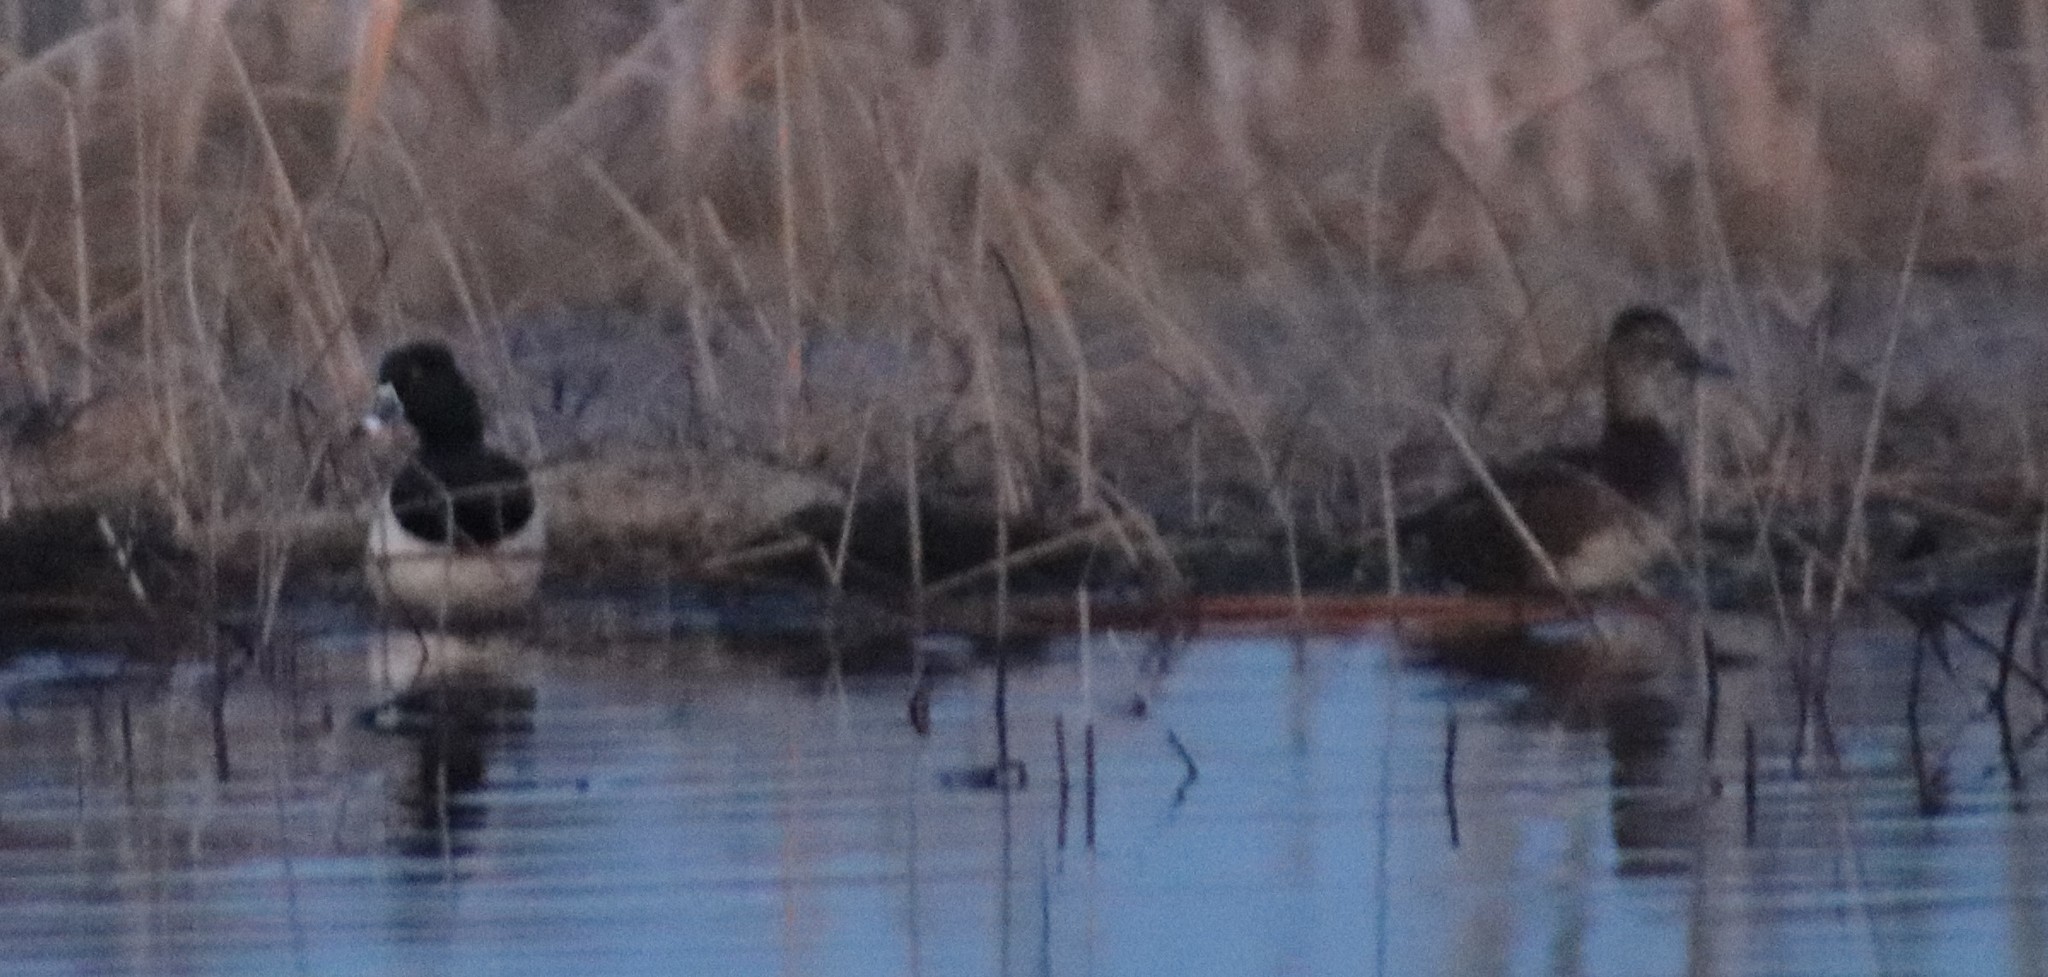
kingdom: Animalia
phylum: Chordata
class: Aves
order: Anseriformes
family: Anatidae
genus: Aythya
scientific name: Aythya collaris
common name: Ring-necked duck
